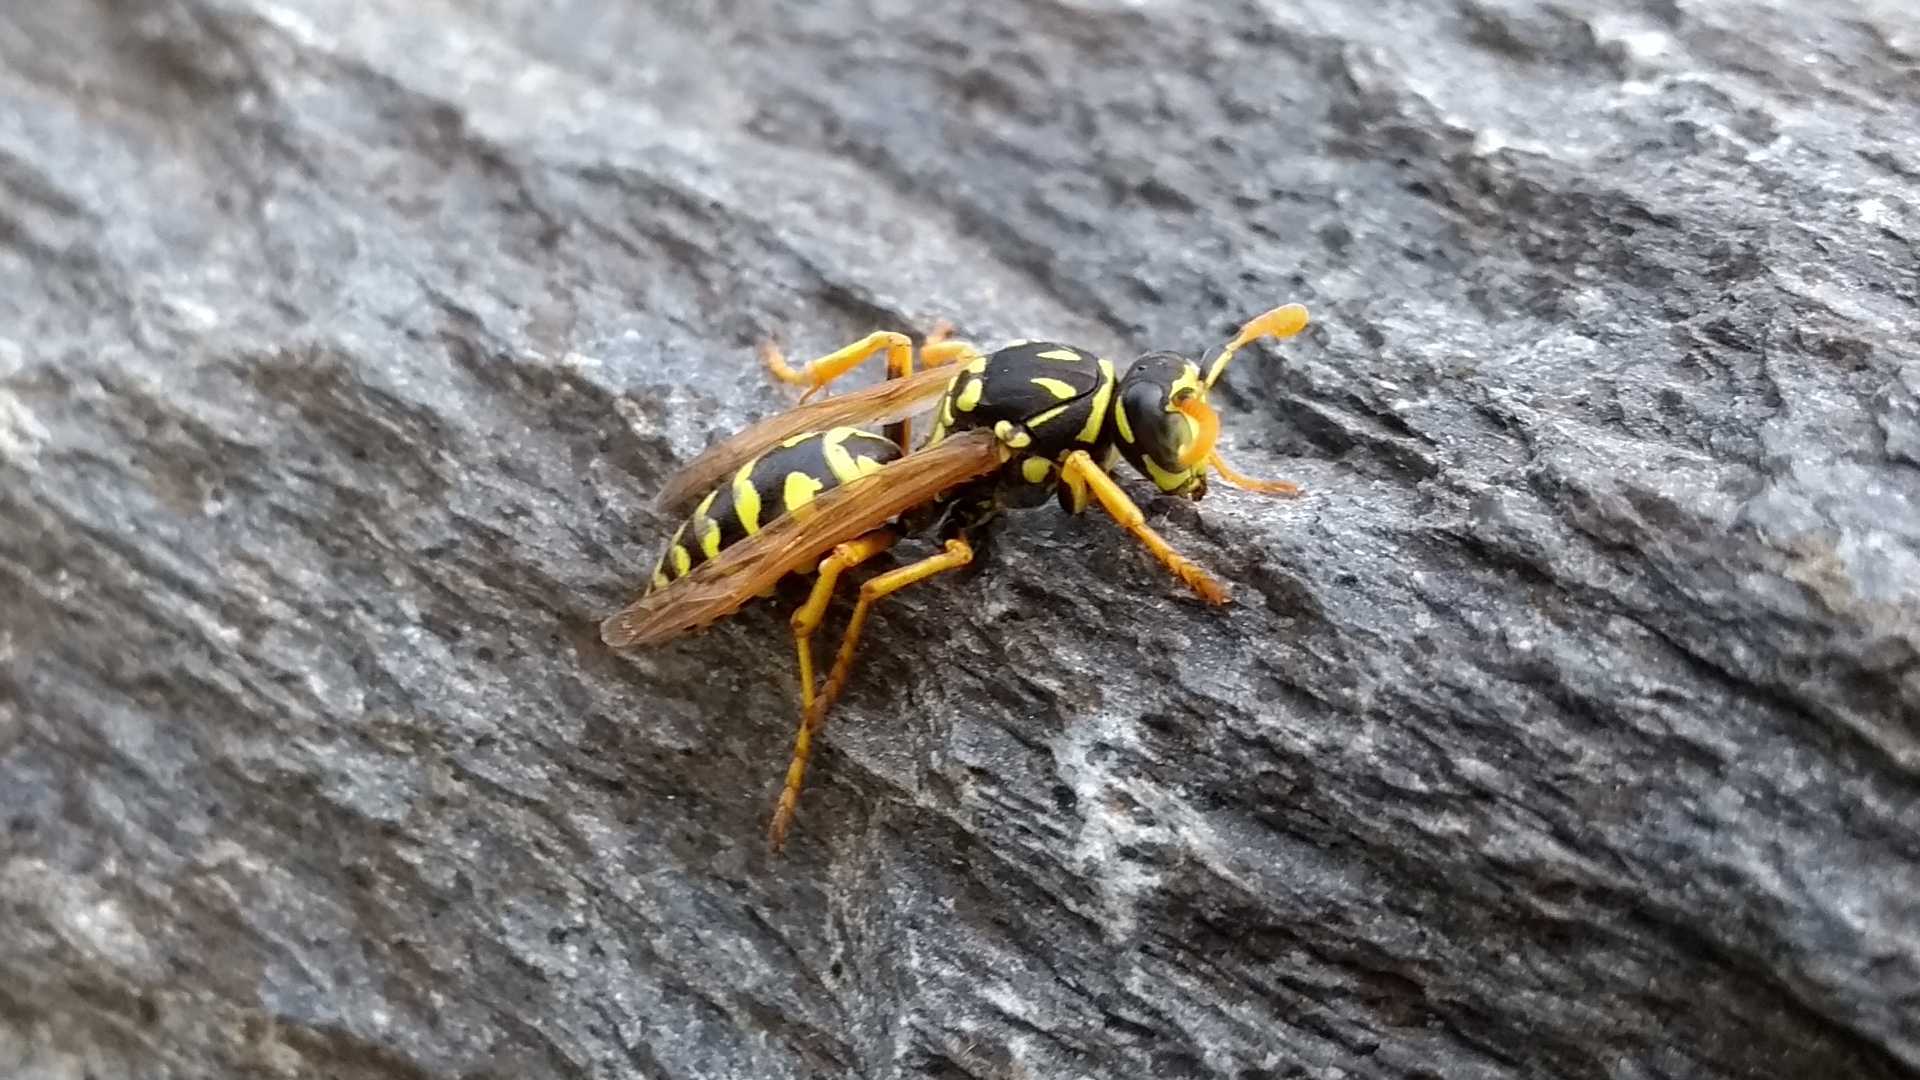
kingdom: Animalia
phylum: Arthropoda
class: Insecta
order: Hymenoptera
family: Eumenidae
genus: Polistes
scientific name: Polistes dominula
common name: Paper wasp
